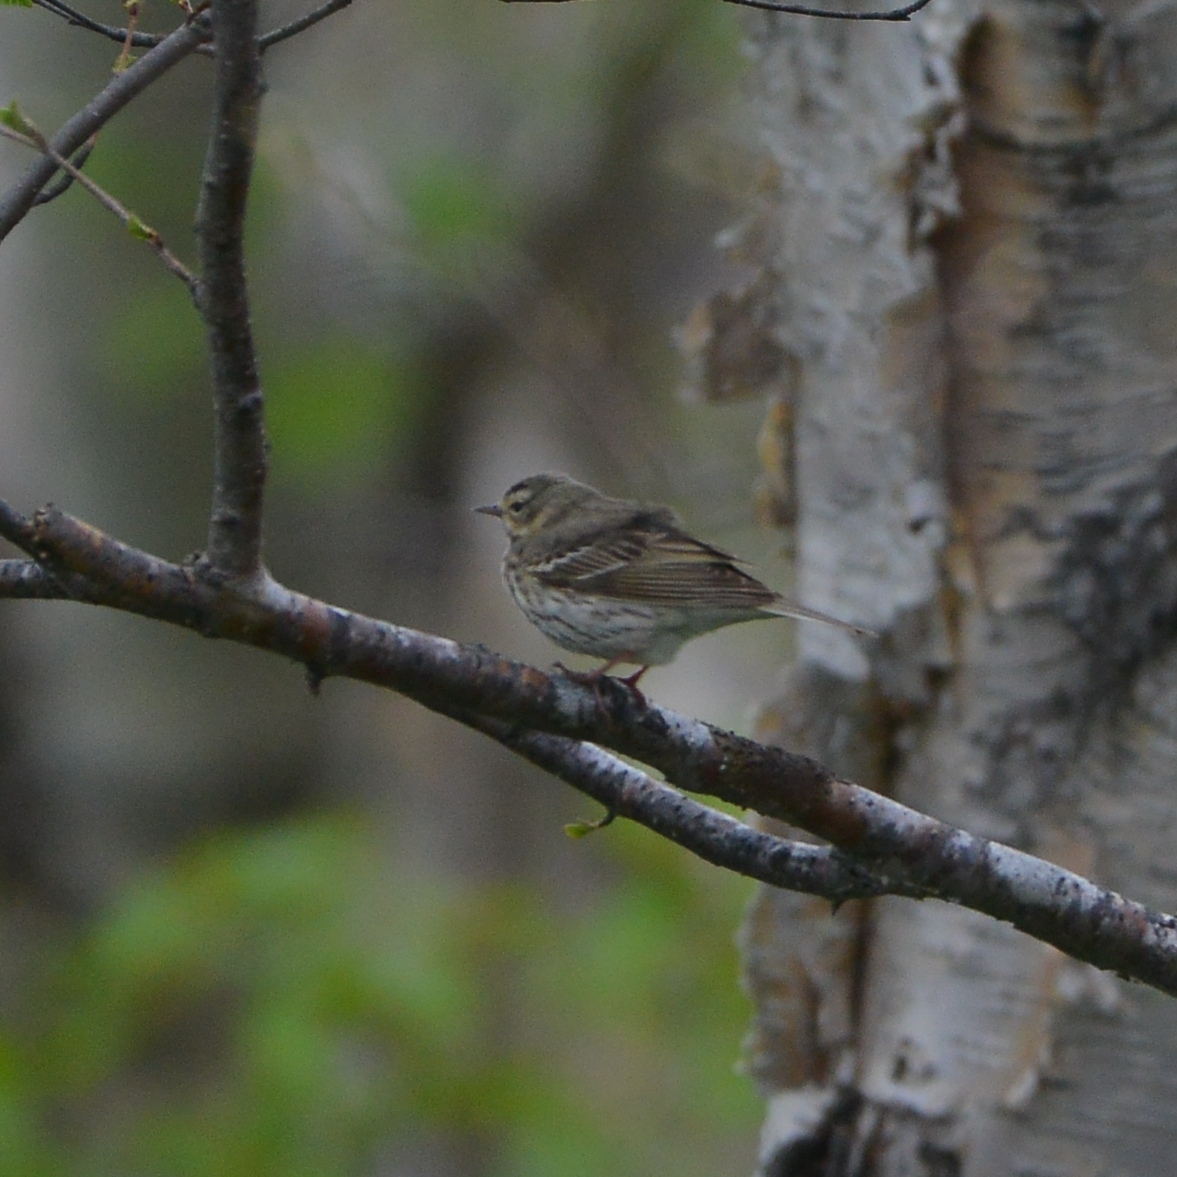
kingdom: Animalia
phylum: Chordata
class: Aves
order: Passeriformes
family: Motacillidae
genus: Anthus
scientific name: Anthus hodgsoni
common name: Olive-backed pipit
